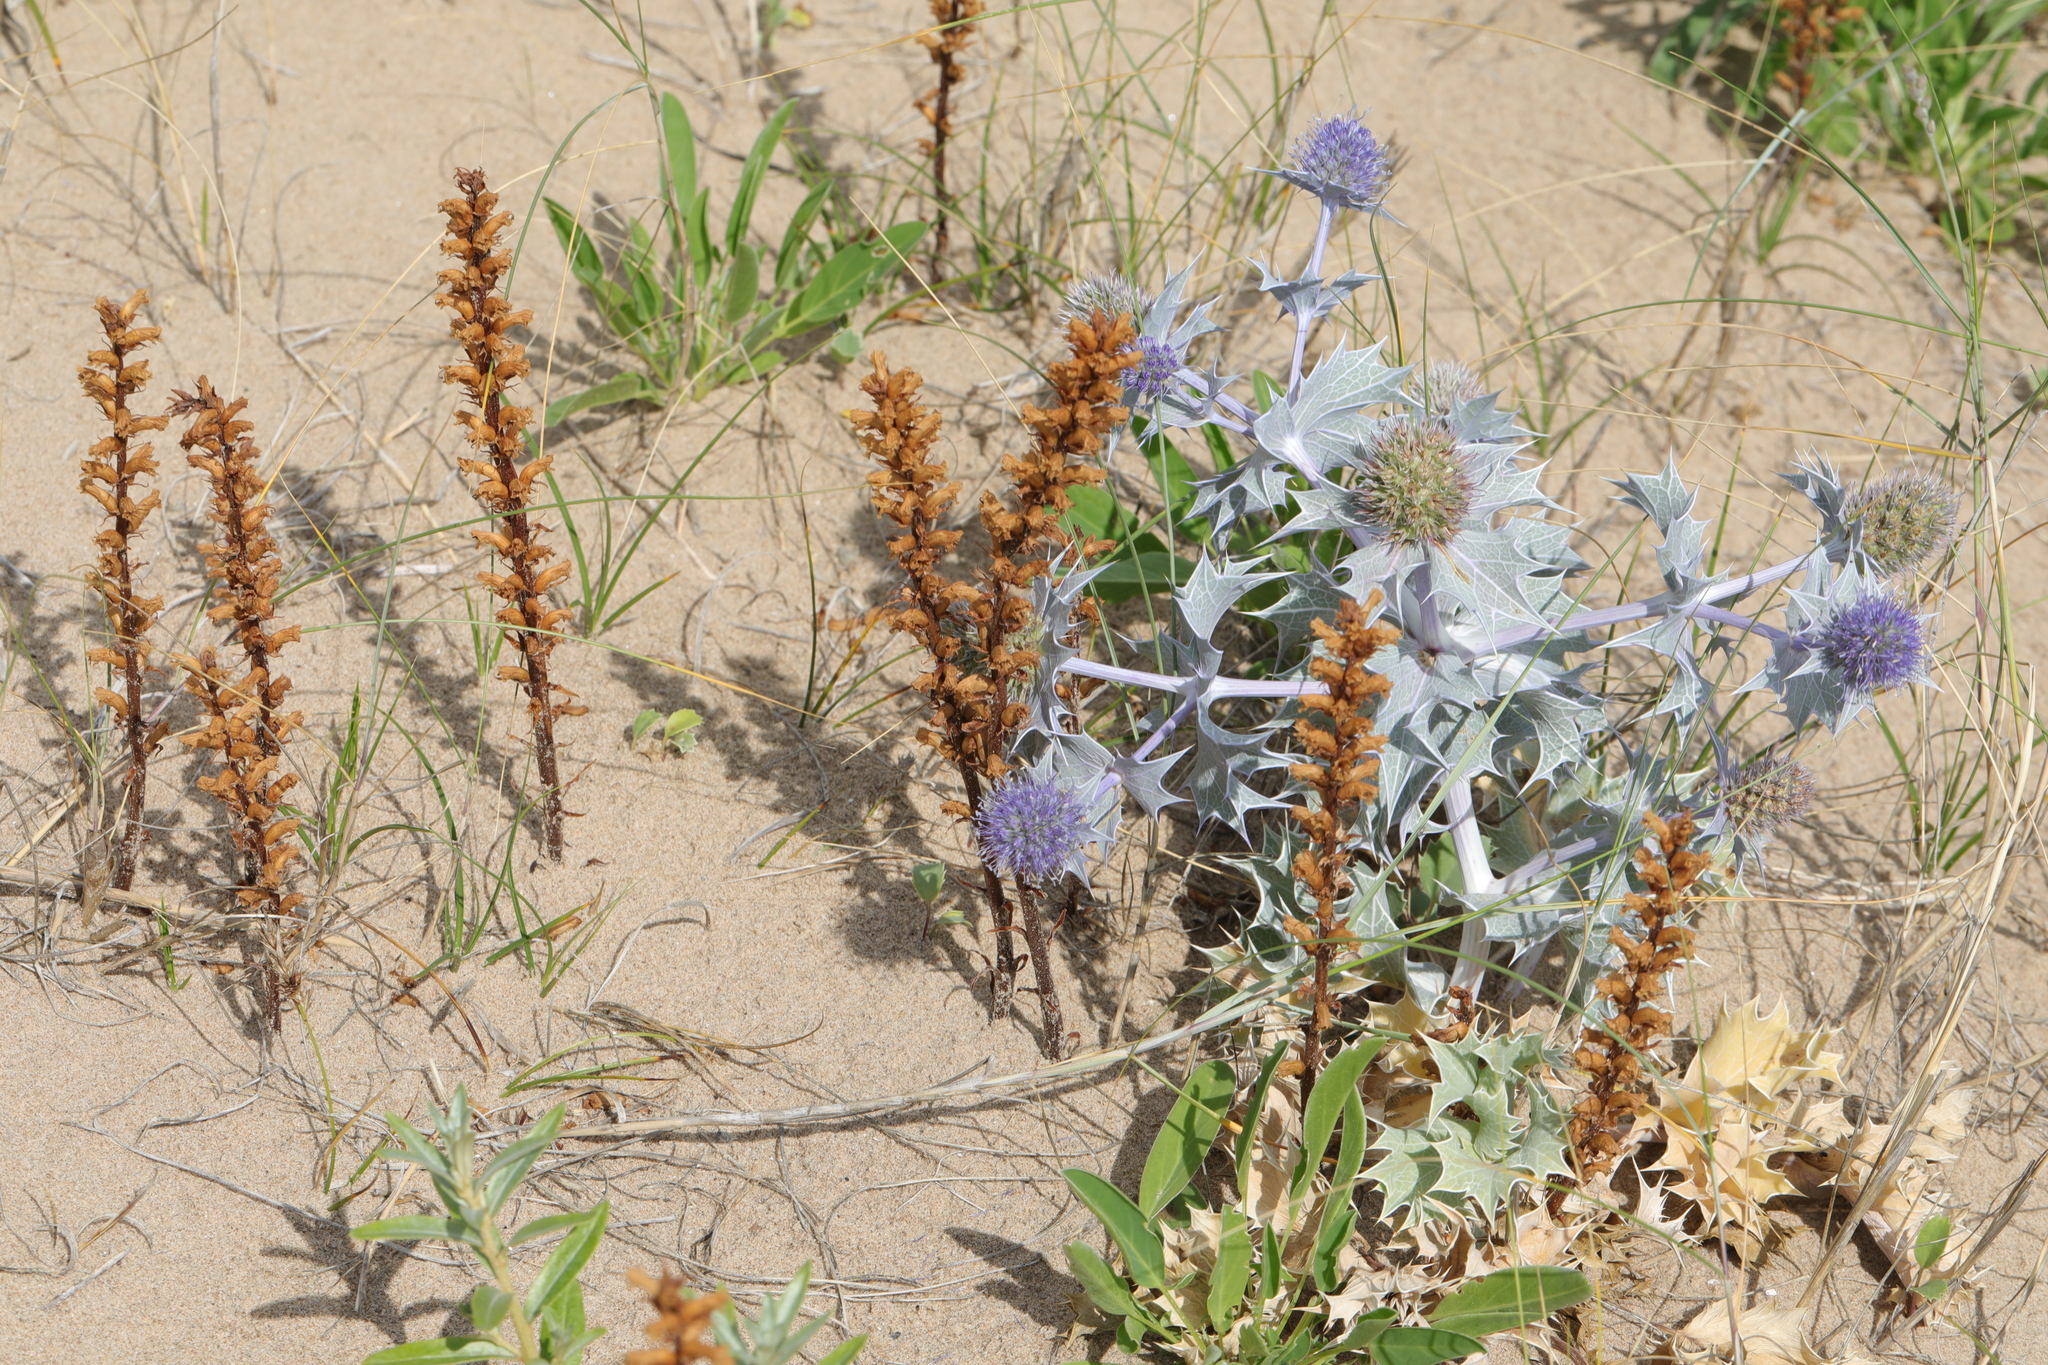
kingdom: Plantae
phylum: Tracheophyta
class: Magnoliopsida
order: Lamiales
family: Orobanchaceae
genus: Orobanche
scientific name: Orobanche minor
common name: Common broomrape
